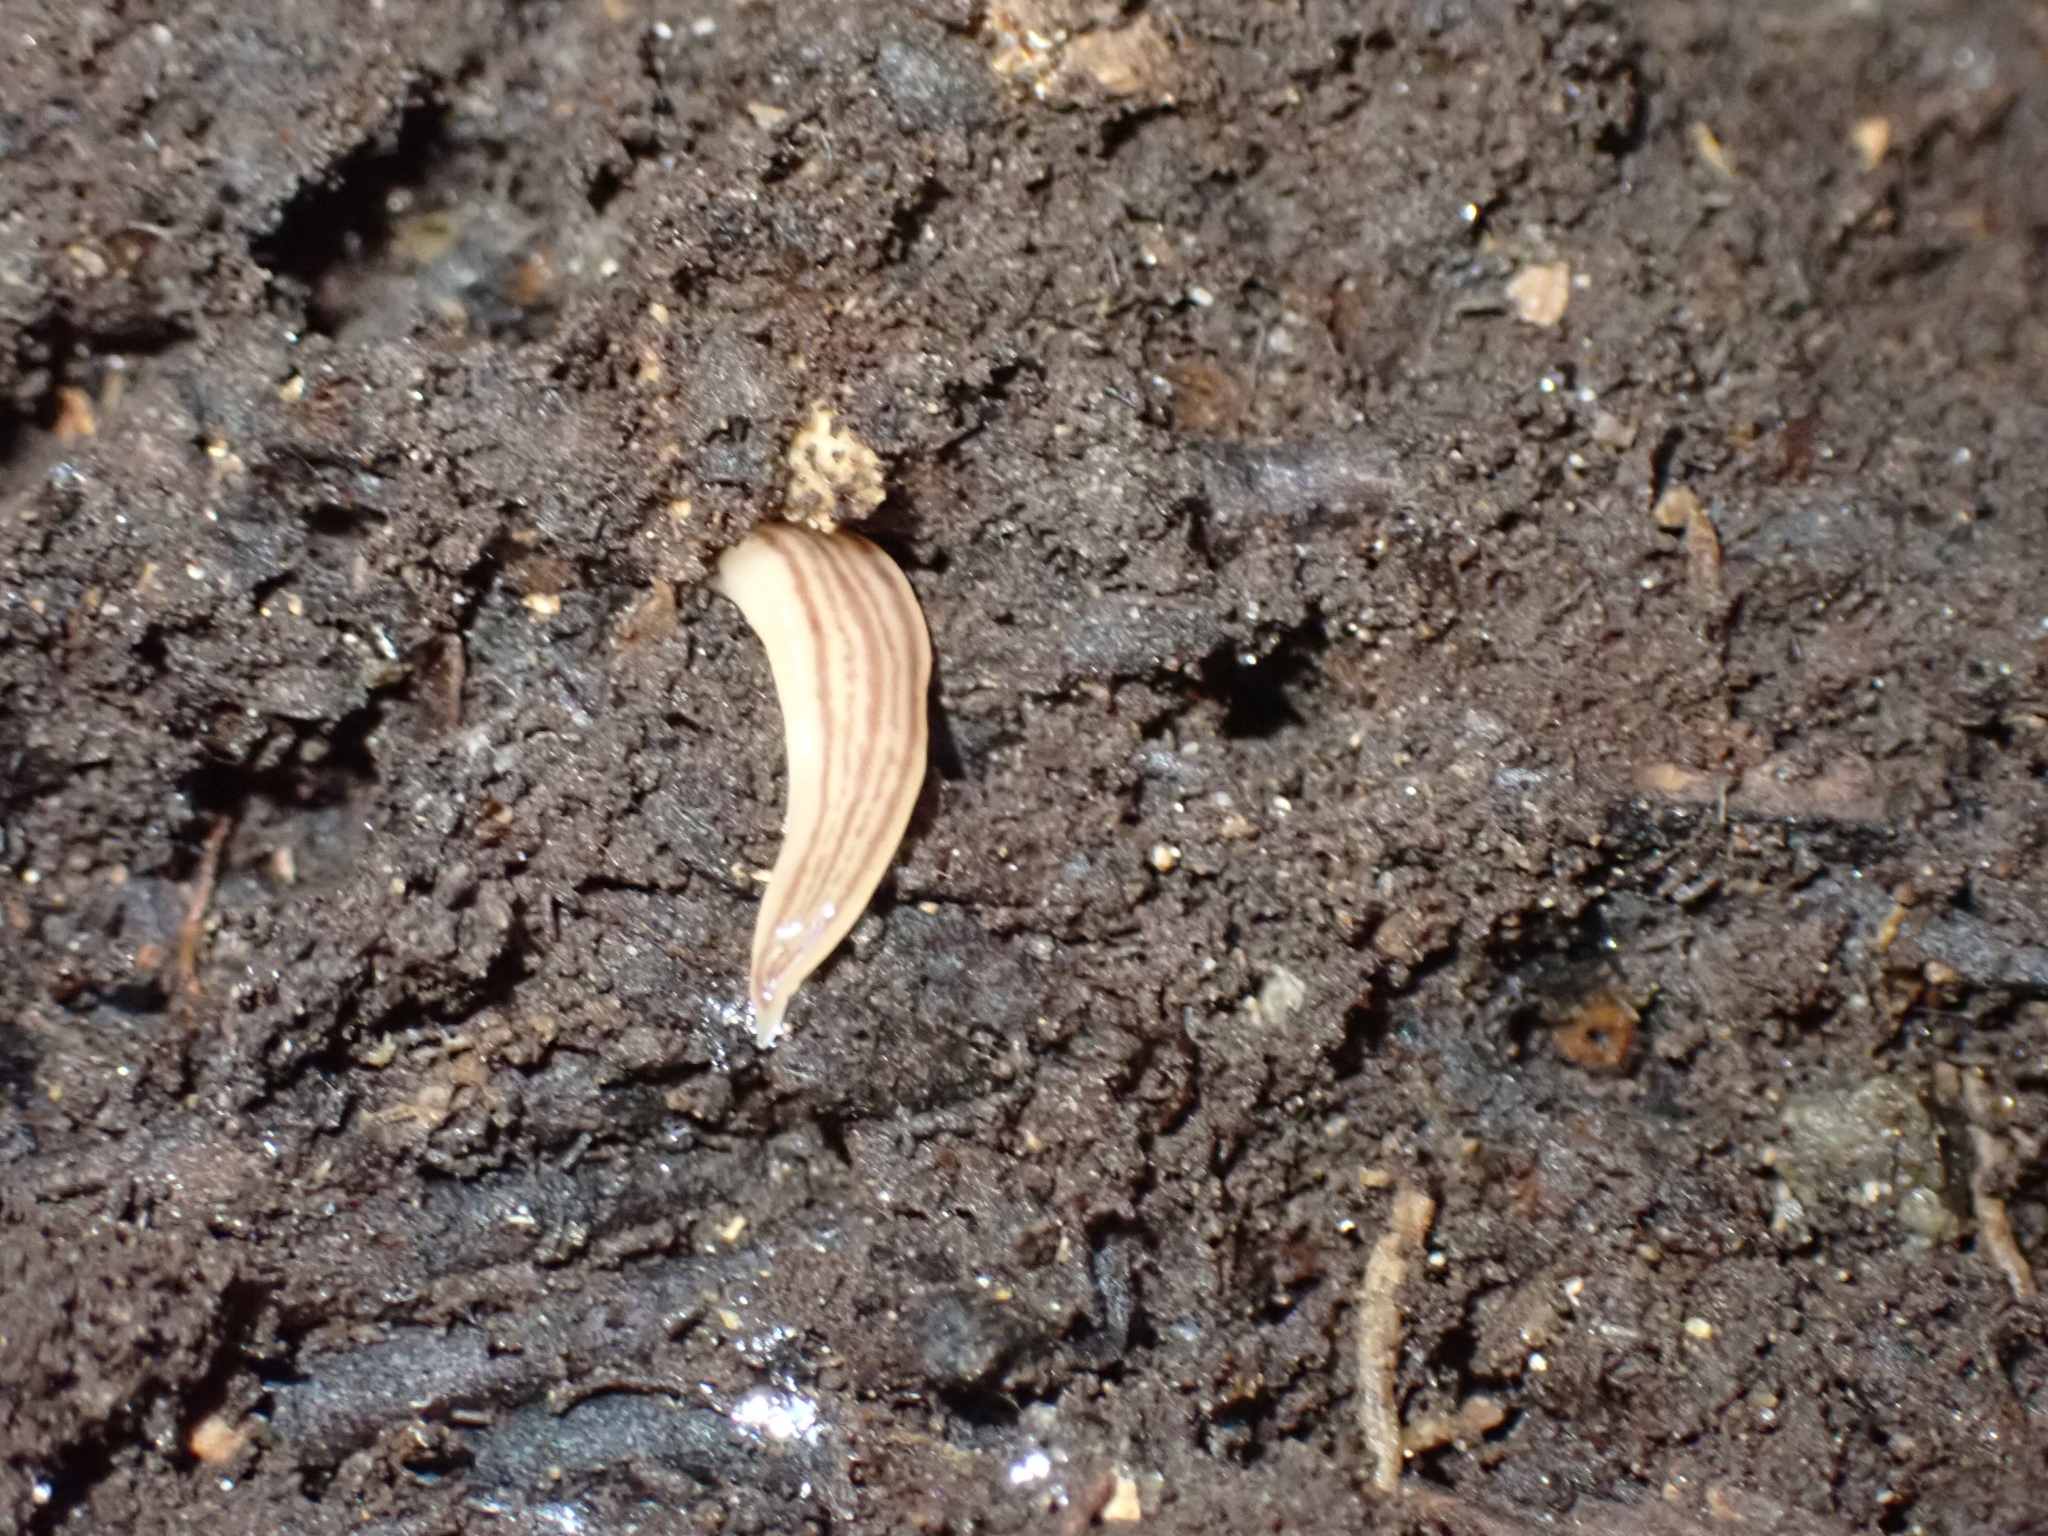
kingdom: Animalia
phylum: Platyhelminthes
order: Tricladida
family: Geoplanidae
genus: Artioposthia
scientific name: Artioposthia
